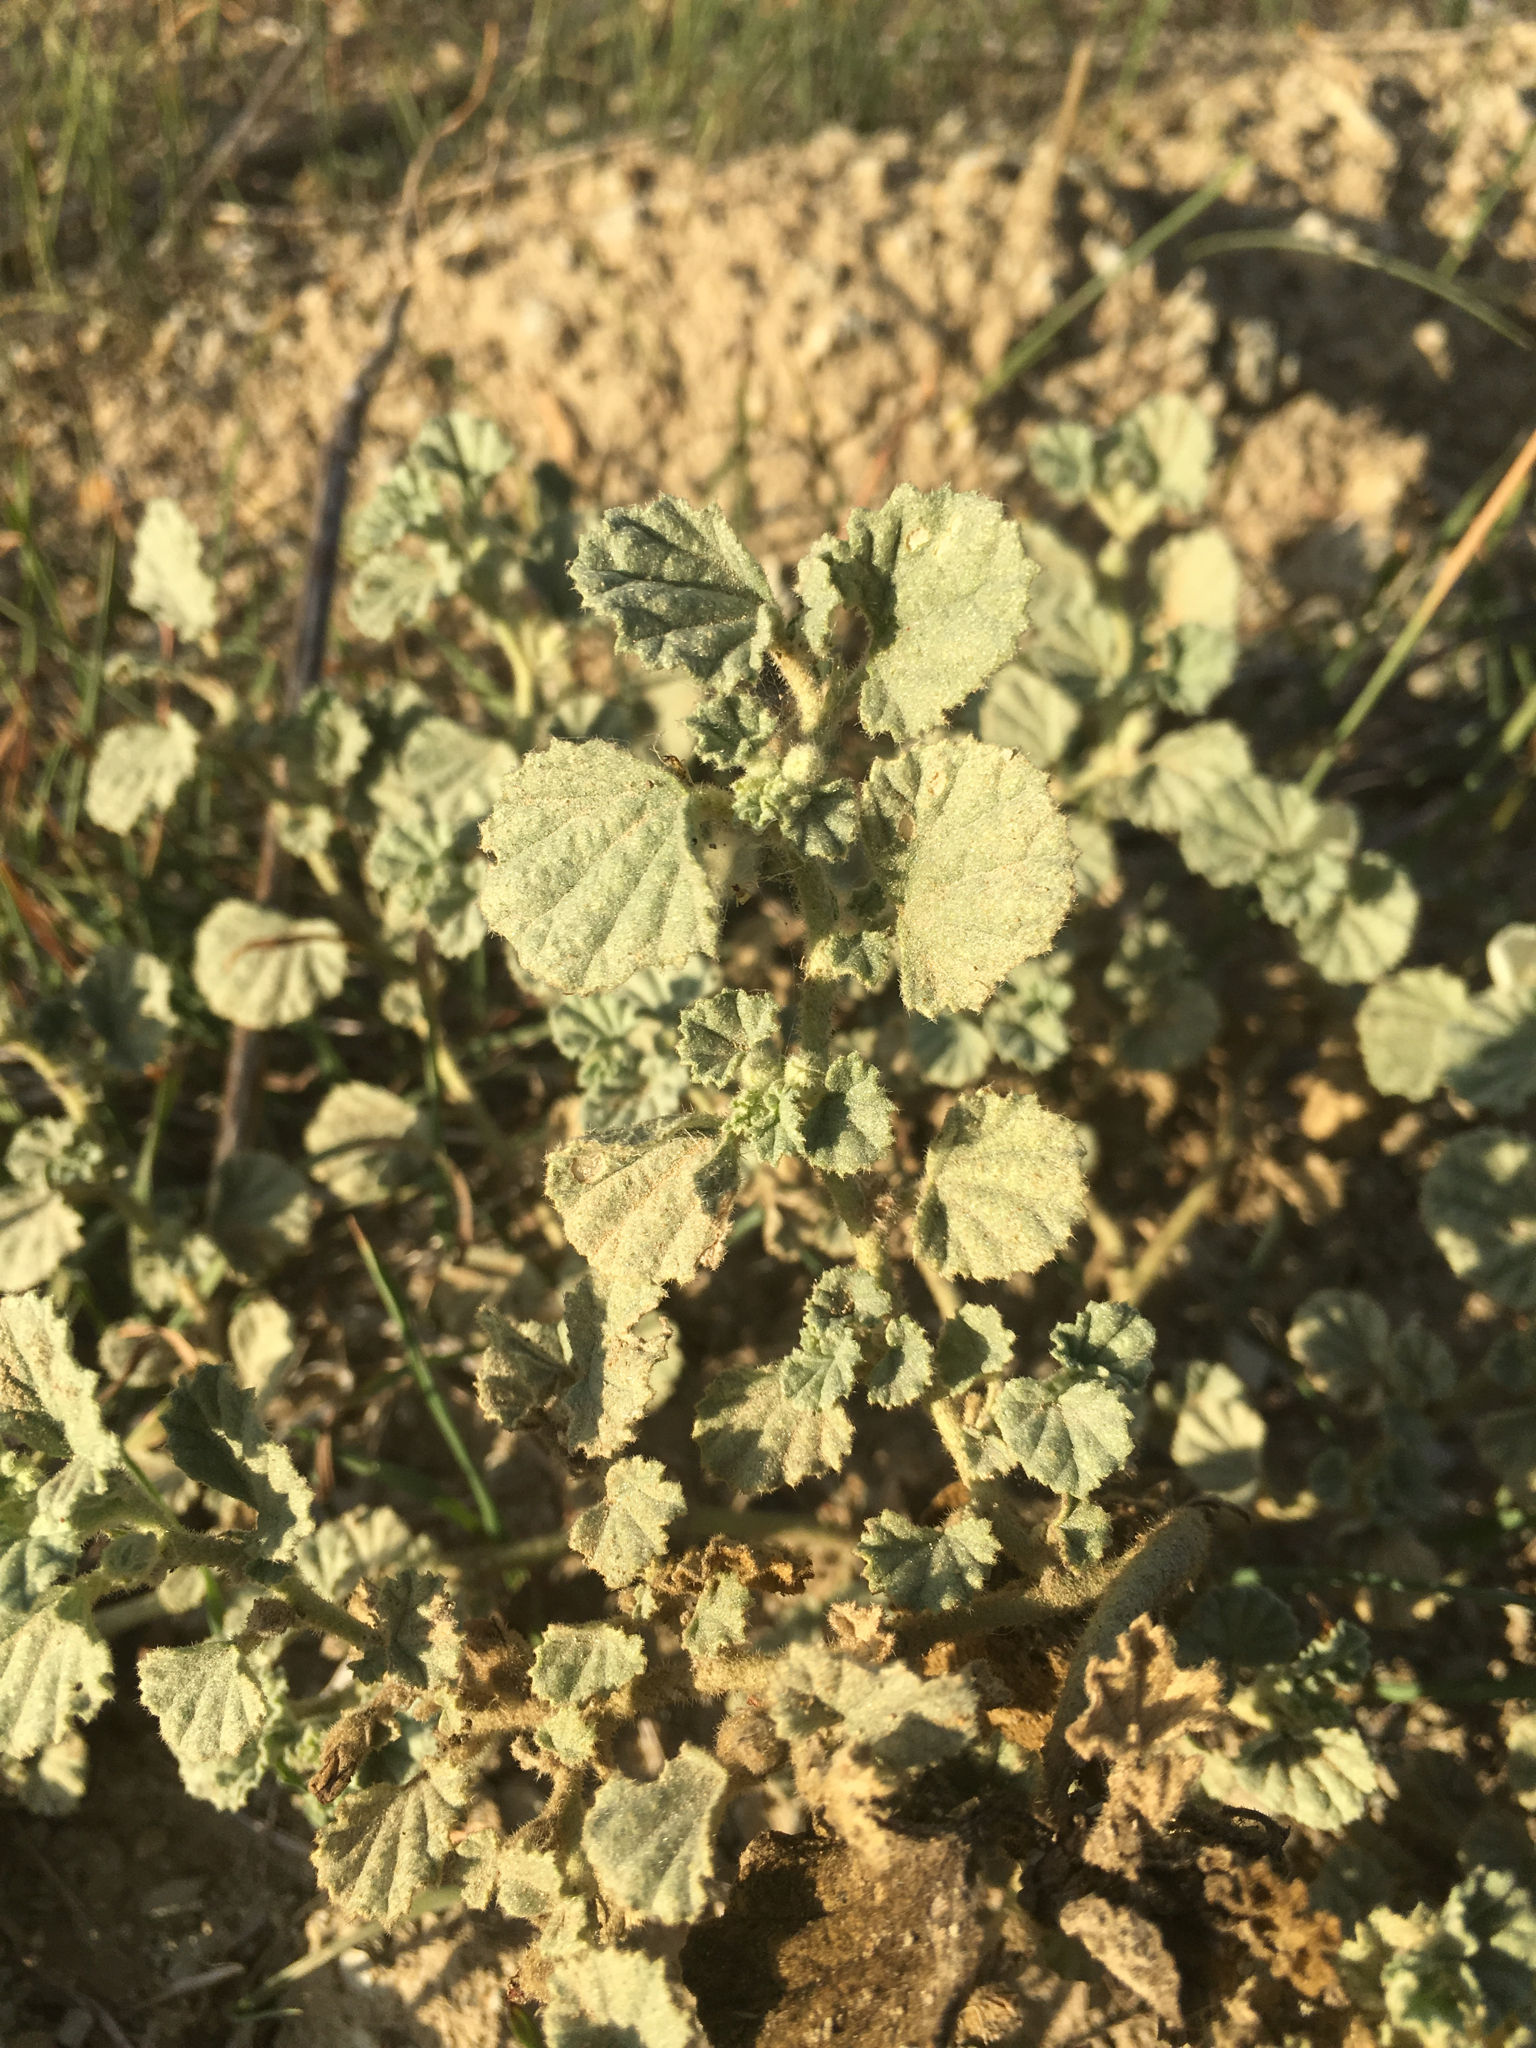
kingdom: Plantae
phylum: Tracheophyta
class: Magnoliopsida
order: Malvales
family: Malvaceae
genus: Malvella
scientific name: Malvella leprosa
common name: Alkali-mallow
